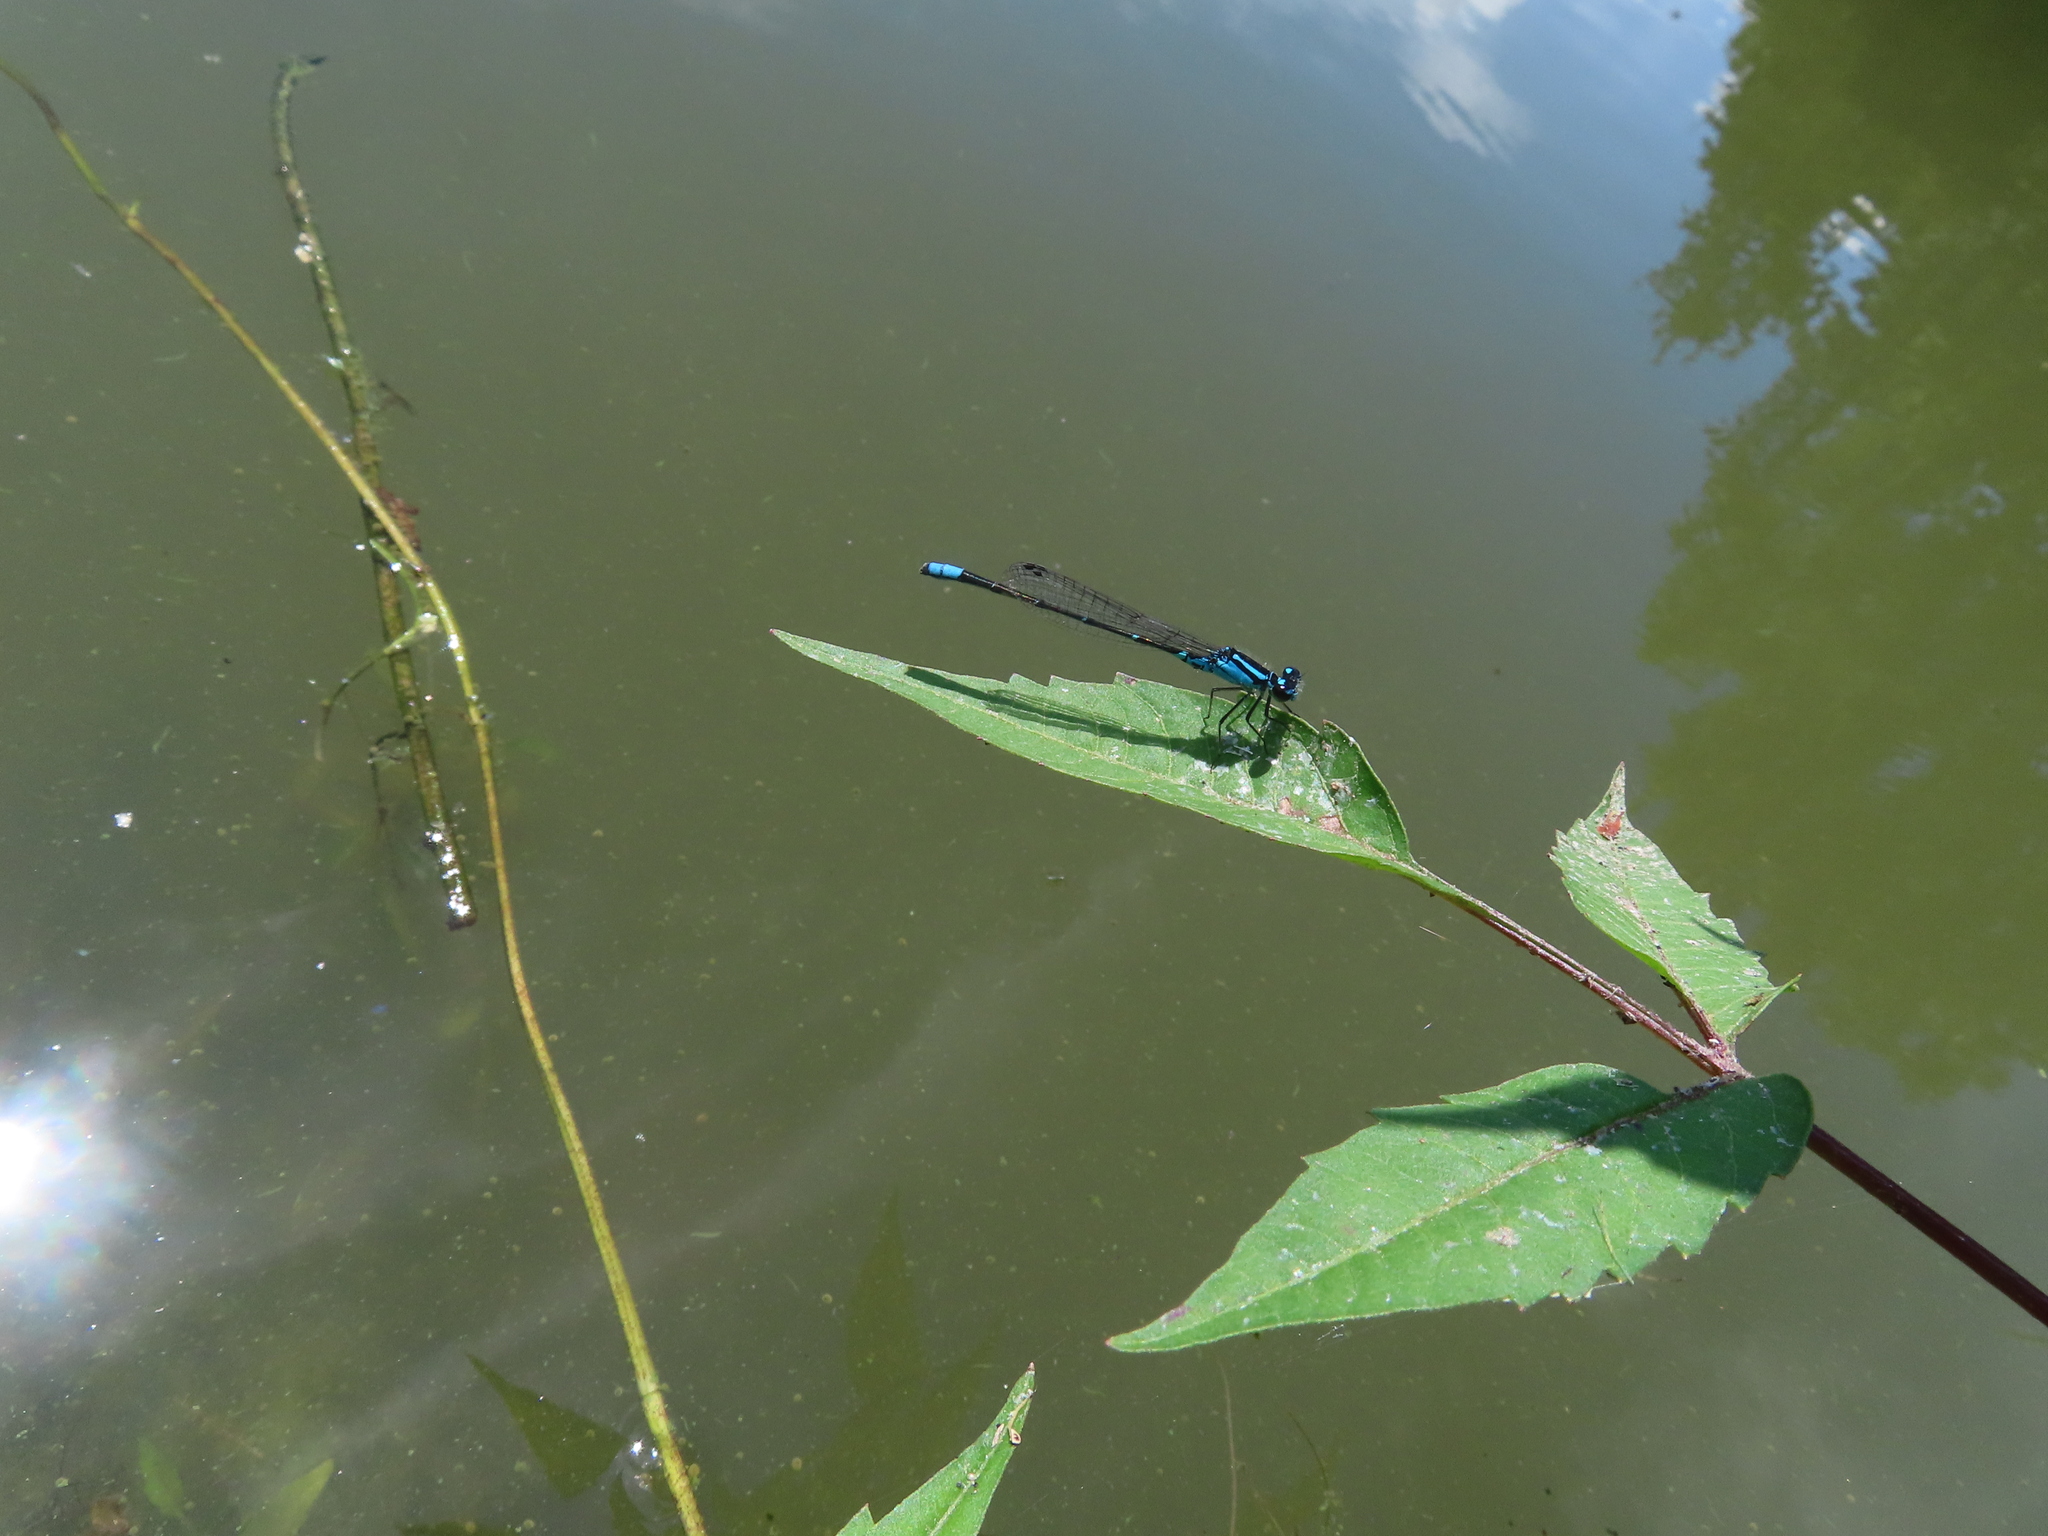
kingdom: Animalia
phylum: Arthropoda
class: Insecta
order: Odonata
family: Coenagrionidae
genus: Enallagma
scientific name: Enallagma geminatum
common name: Skimming bluet
